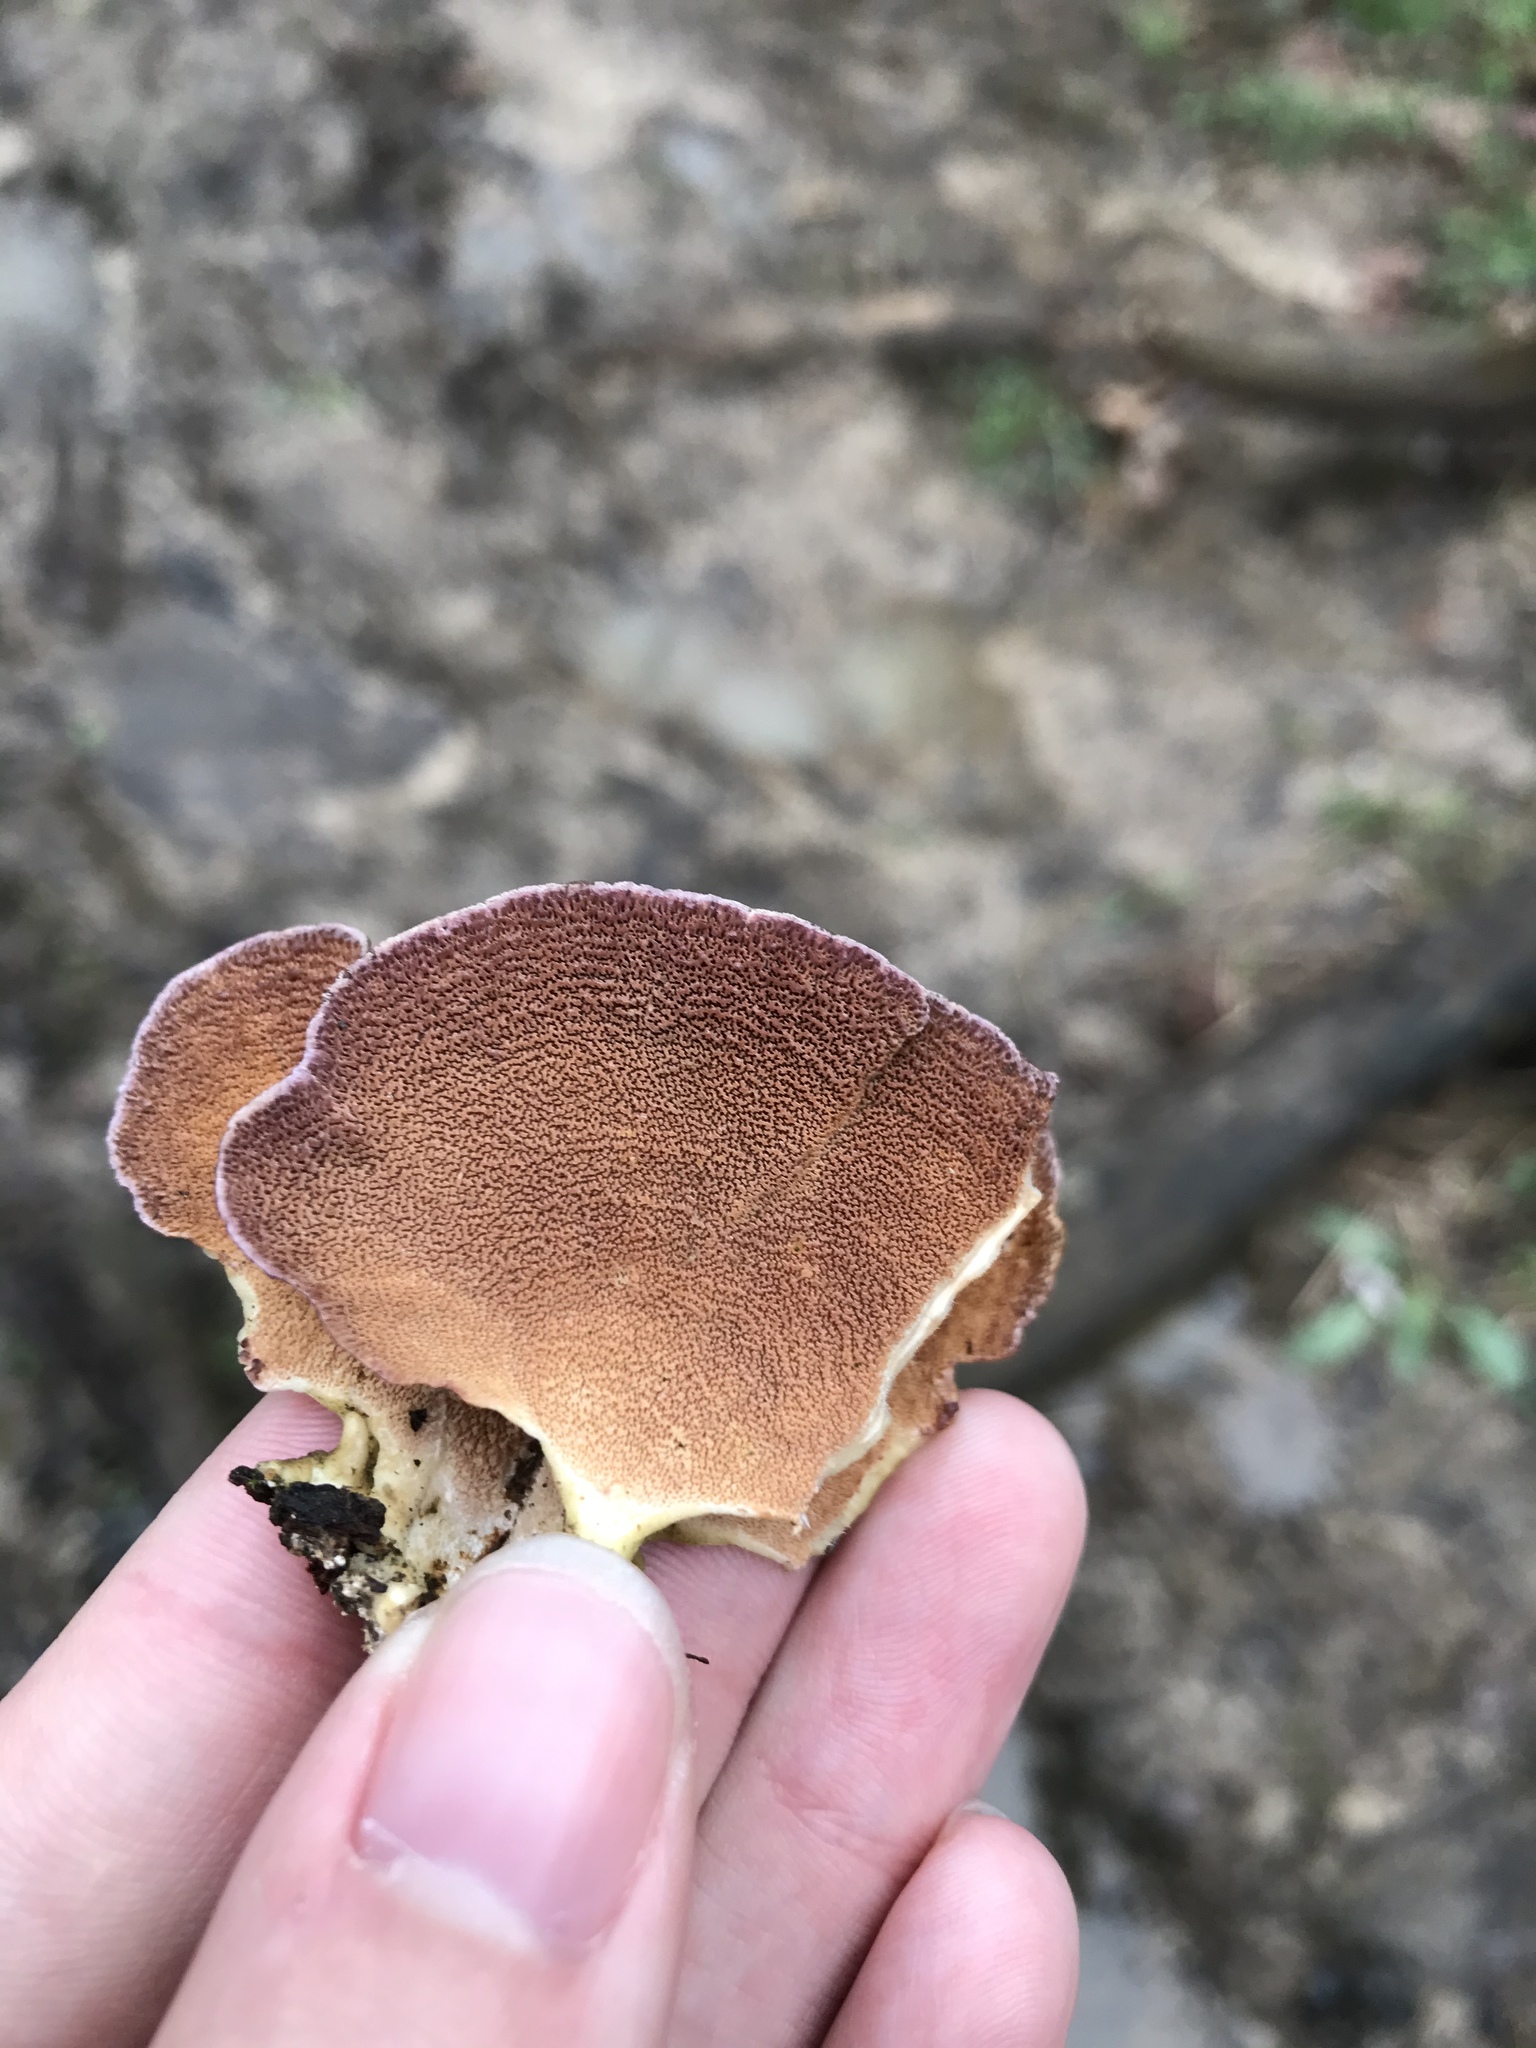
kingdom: Fungi
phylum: Basidiomycota
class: Agaricomycetes
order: Hymenochaetales
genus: Trichaptum
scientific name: Trichaptum biforme
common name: Violet-toothed polypore
